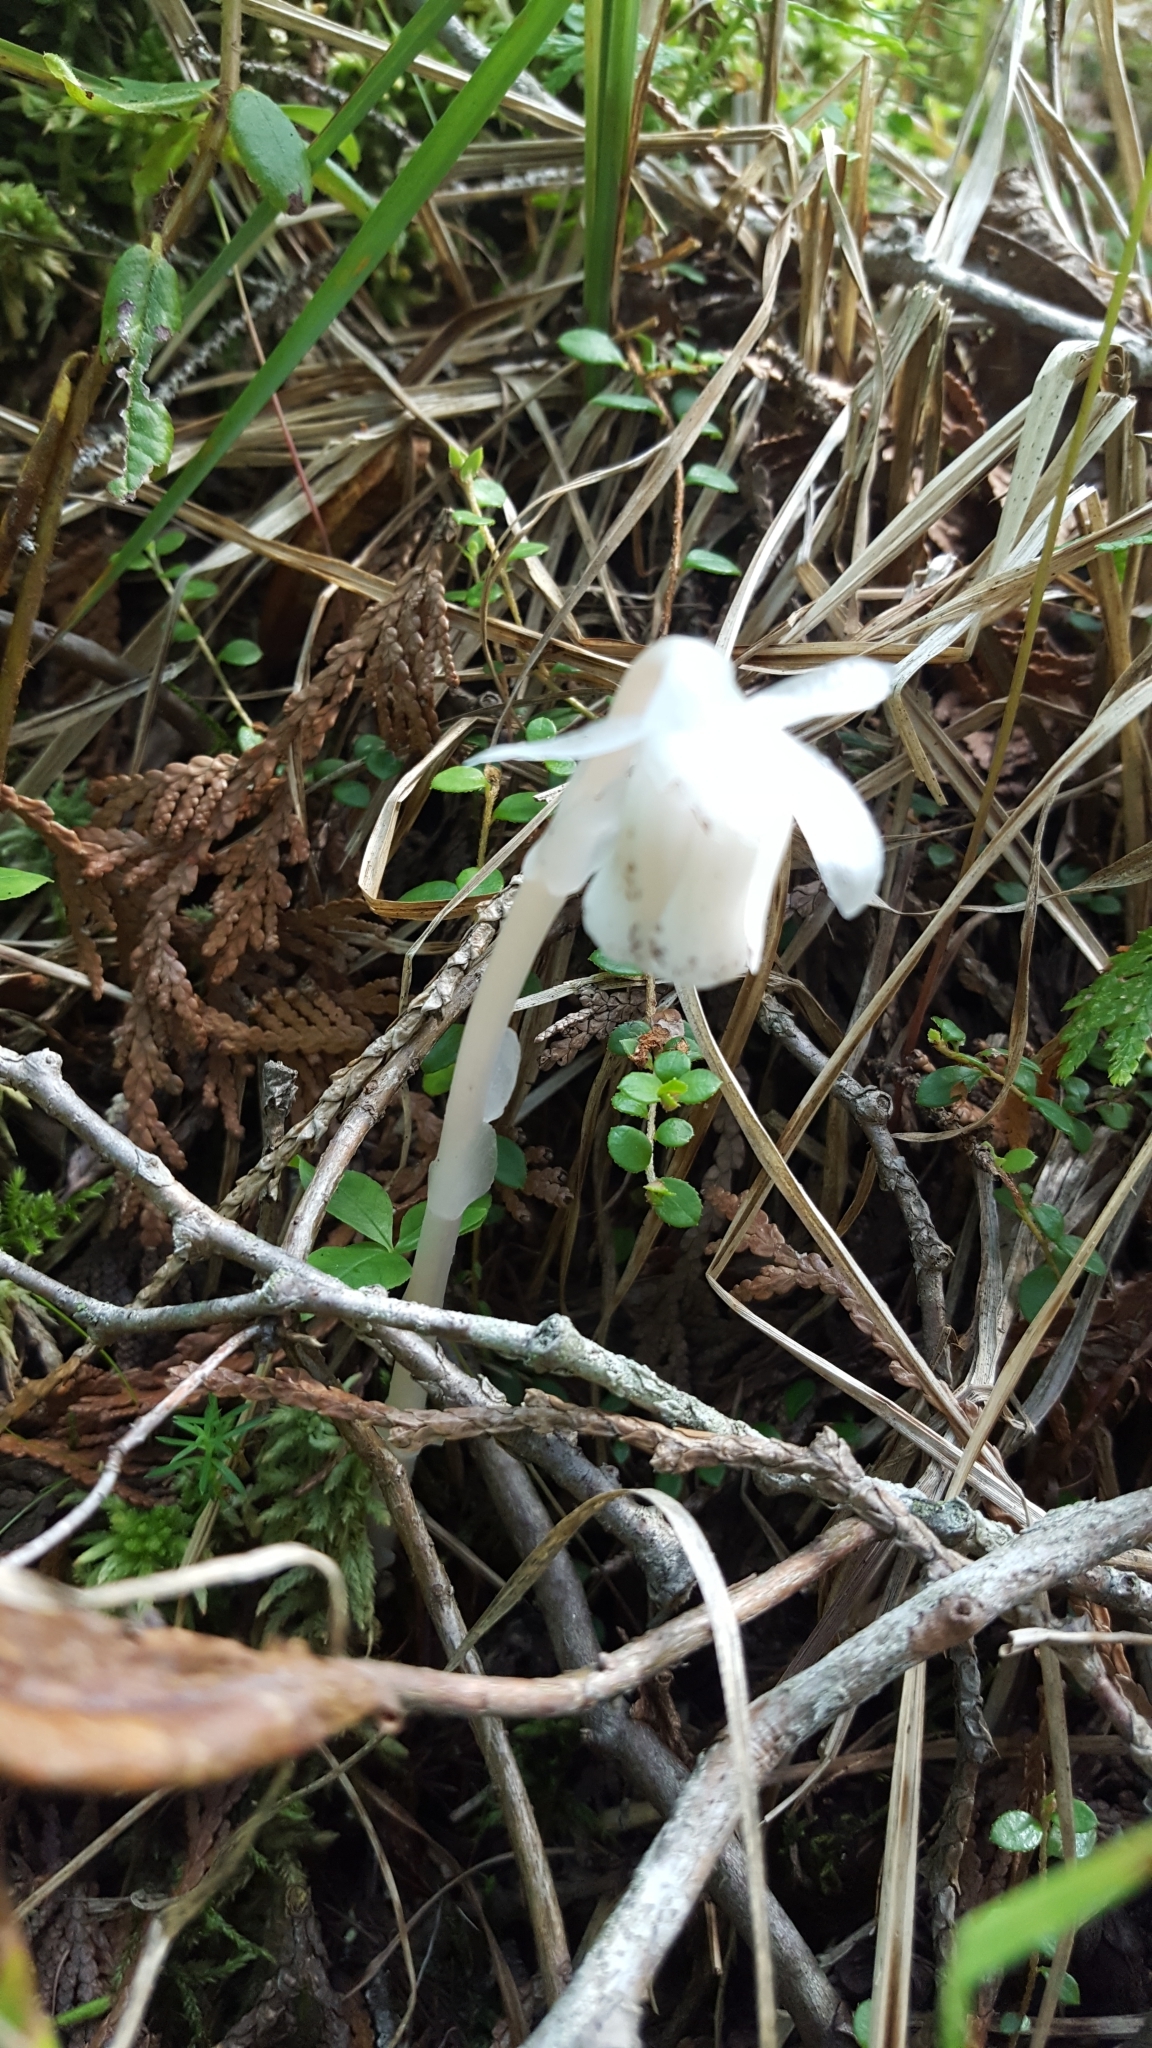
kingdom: Plantae
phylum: Tracheophyta
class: Magnoliopsida
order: Ericales
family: Ericaceae
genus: Monotropa
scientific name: Monotropa uniflora
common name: Convulsion root
